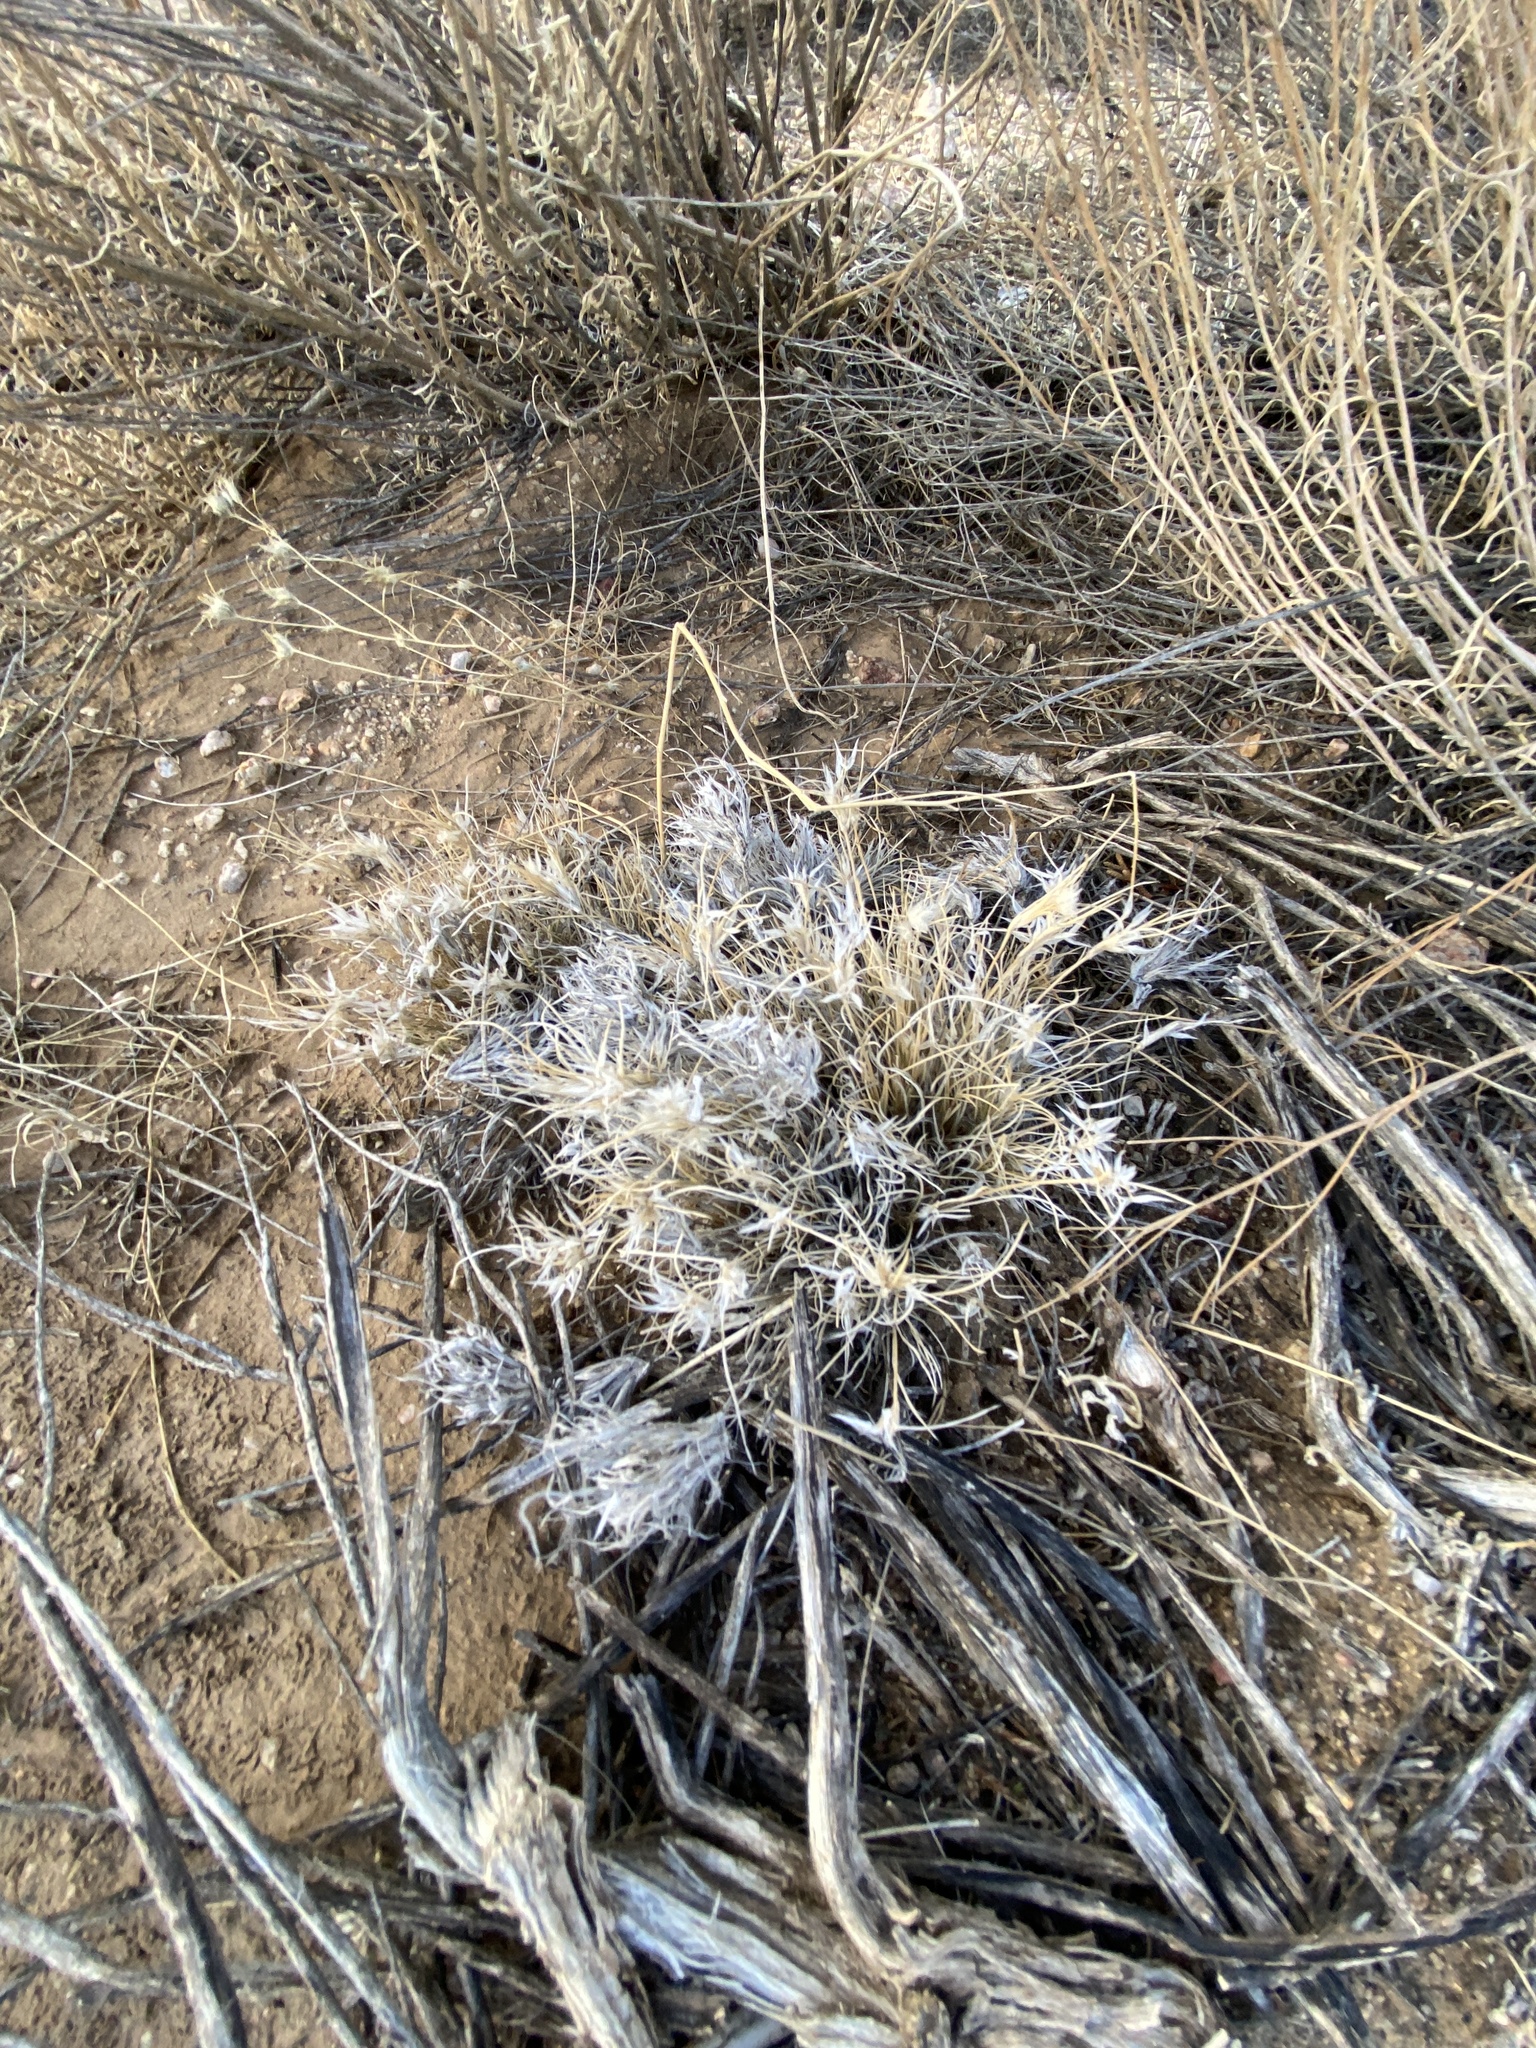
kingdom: Plantae
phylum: Tracheophyta
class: Liliopsida
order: Poales
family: Poaceae
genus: Dasyochloa
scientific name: Dasyochloa pulchella
